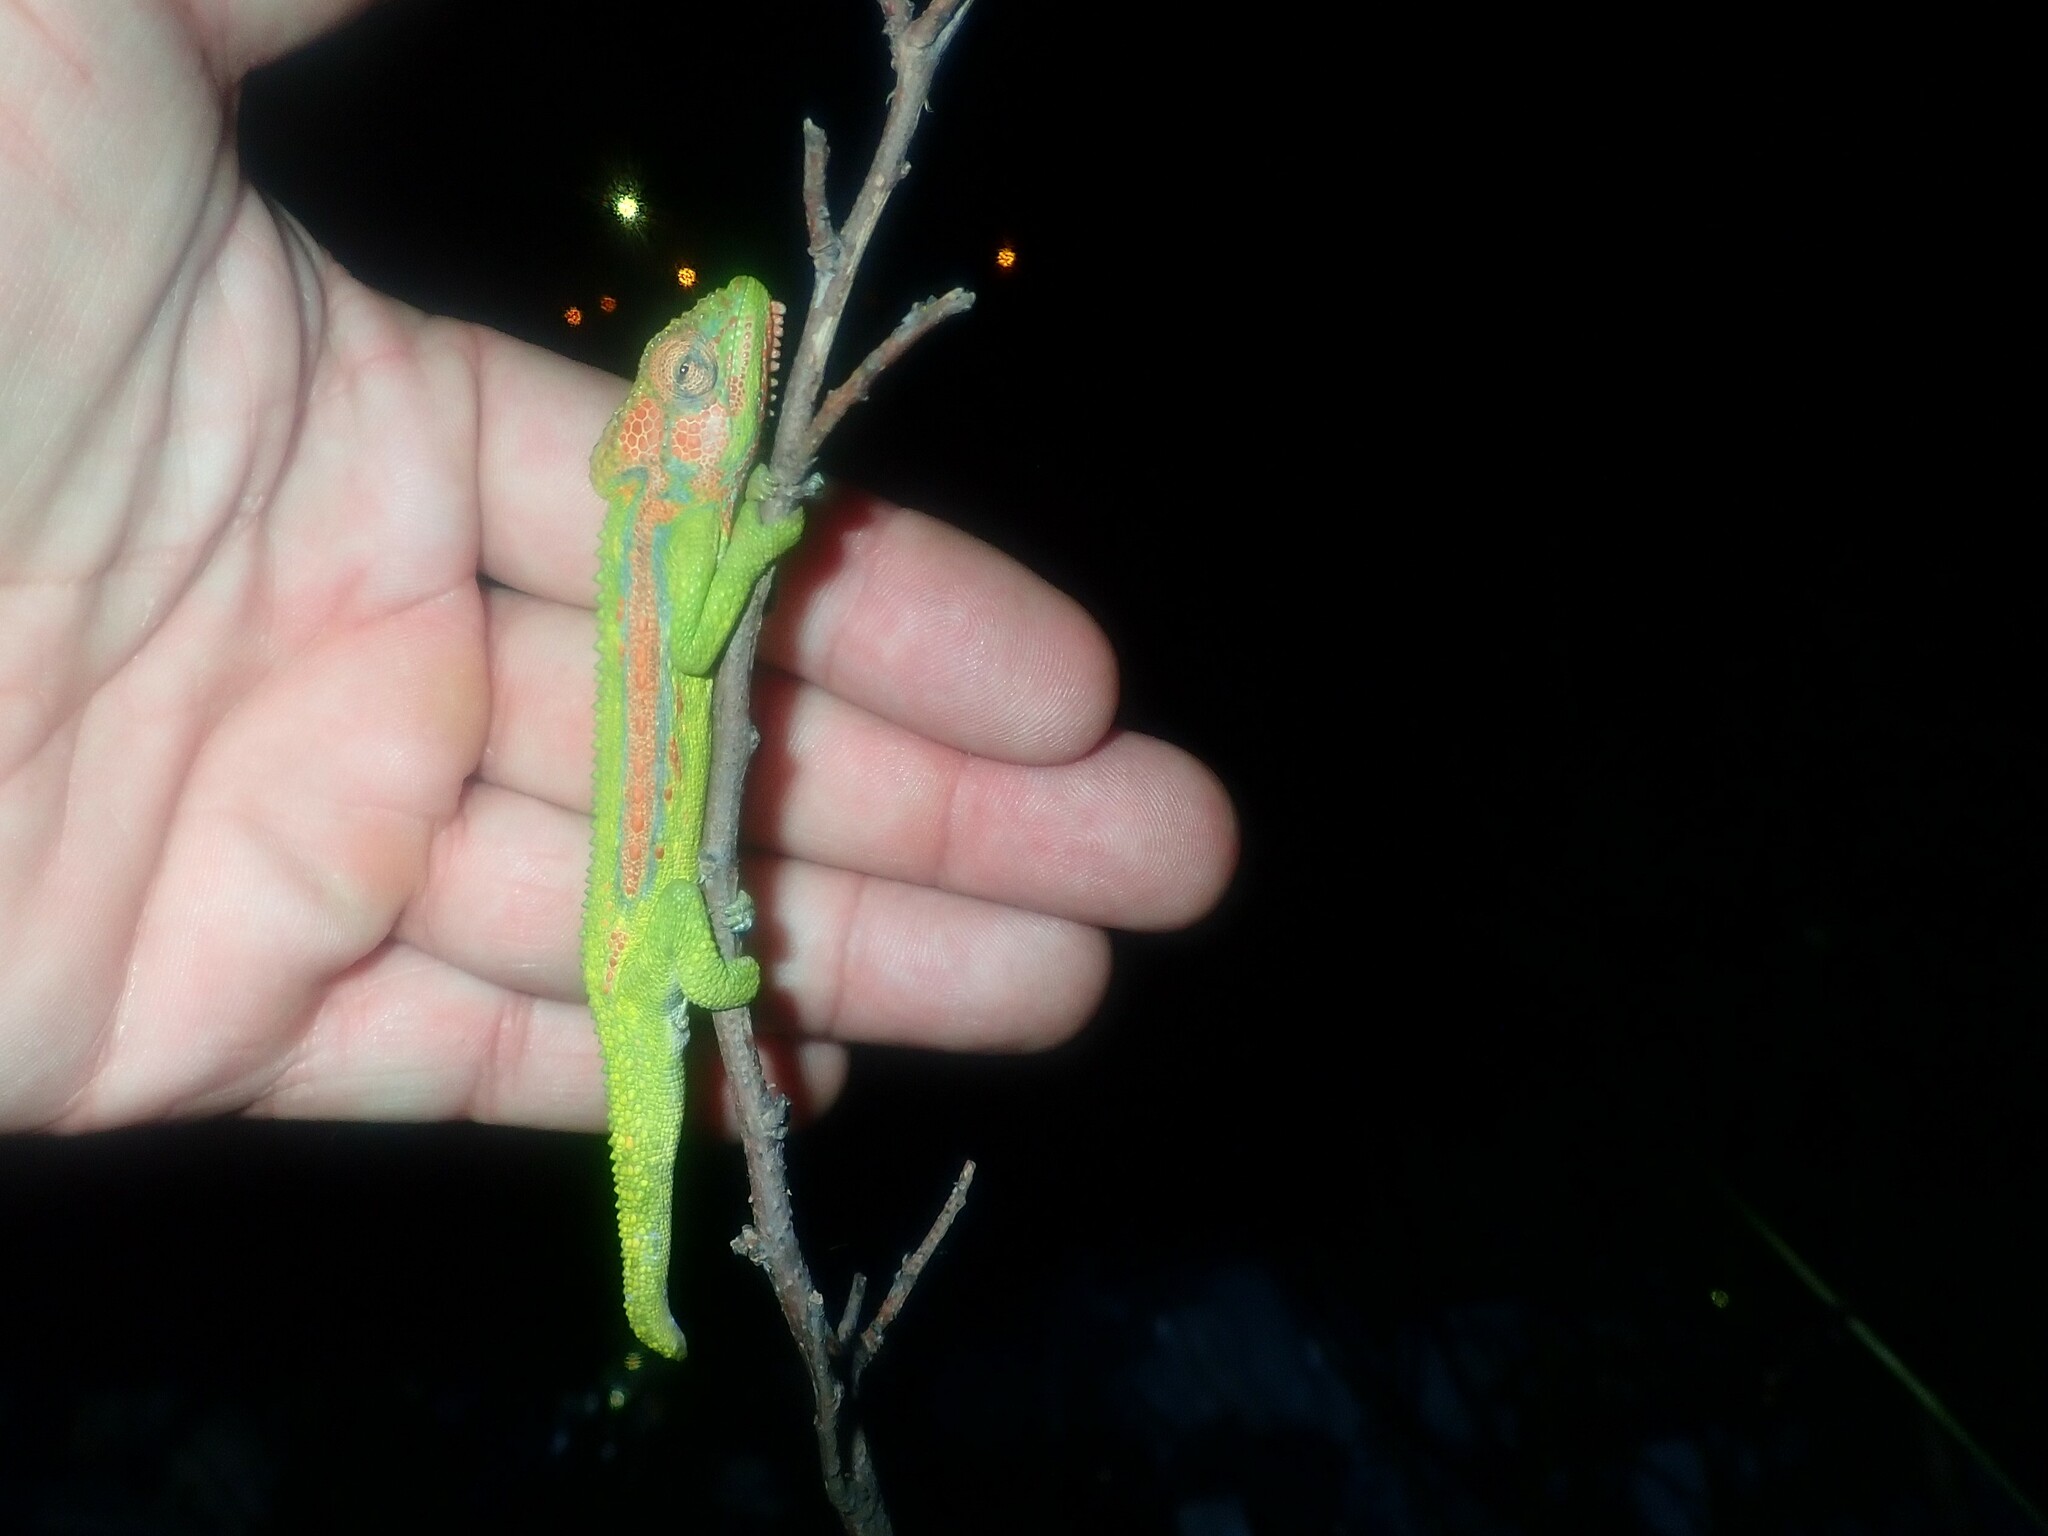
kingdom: Animalia
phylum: Chordata
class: Squamata
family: Chamaeleonidae
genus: Bradypodion
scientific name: Bradypodion pumilum
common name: Cape dwarf chameleon
